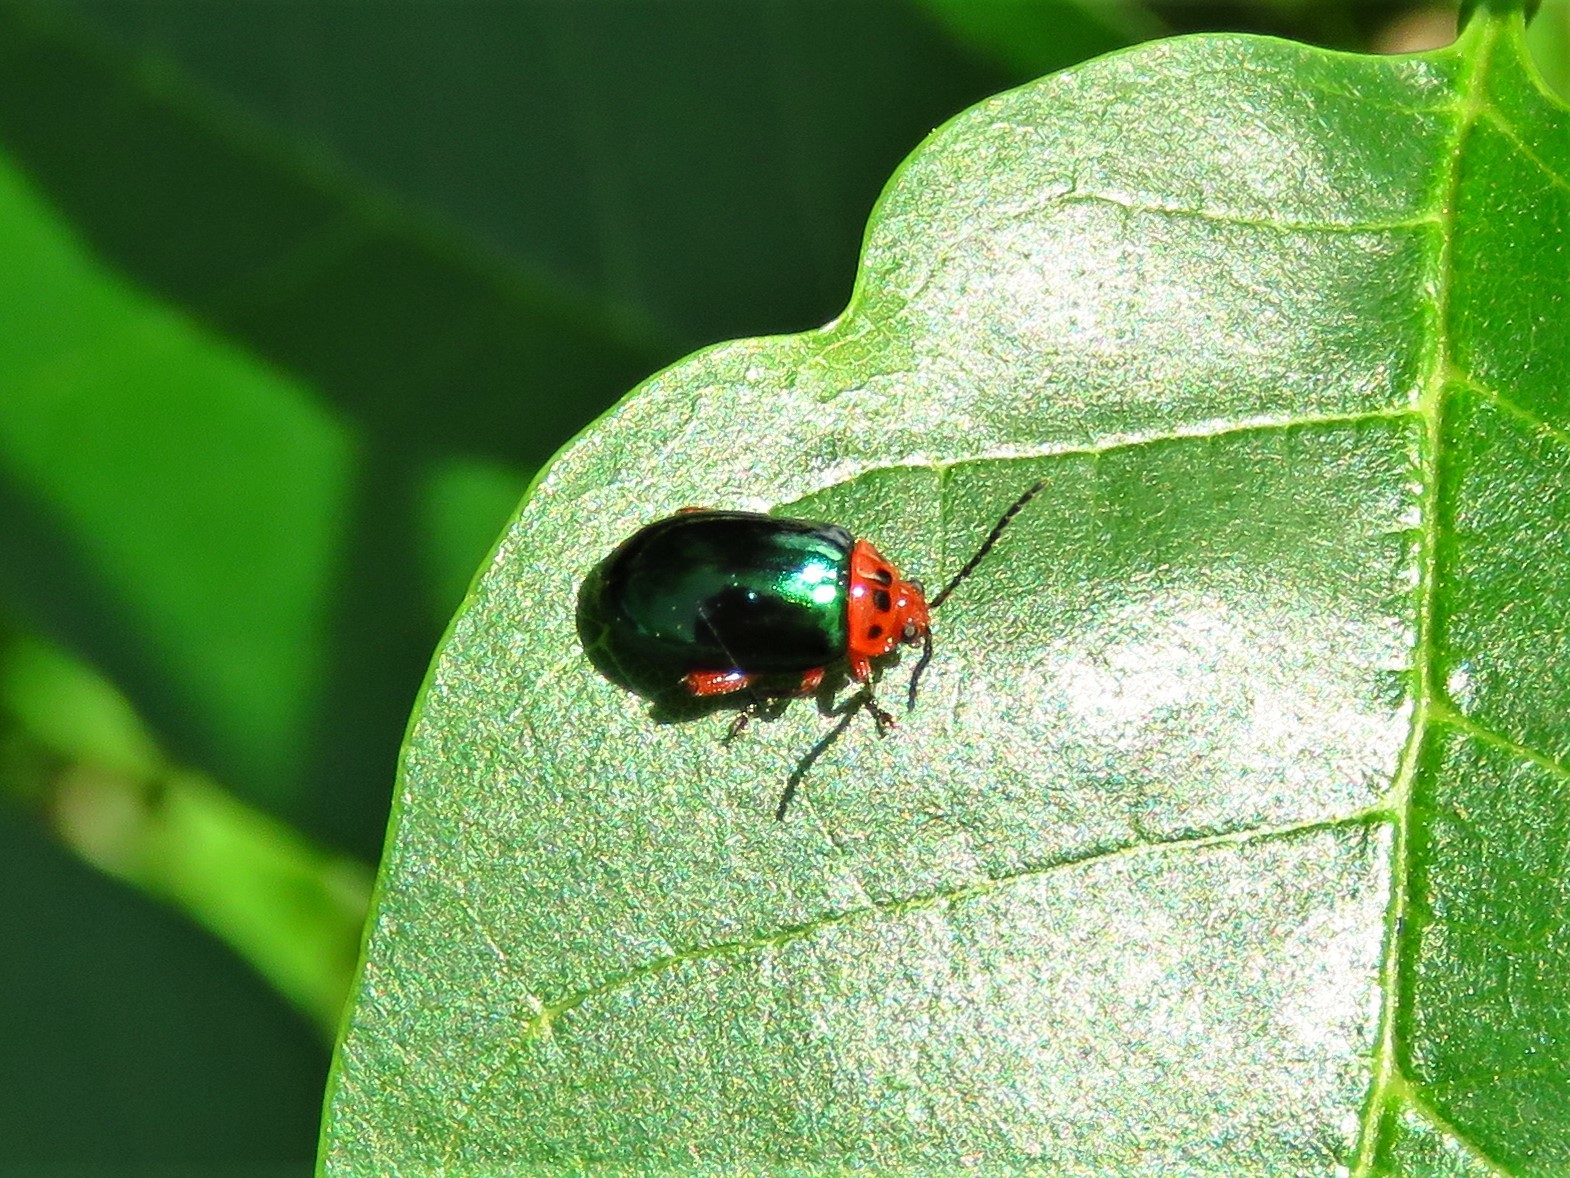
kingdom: Animalia
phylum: Arthropoda
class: Insecta
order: Coleoptera
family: Chrysomelidae
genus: Kuschelina
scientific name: Kuschelina gibbitarsa
